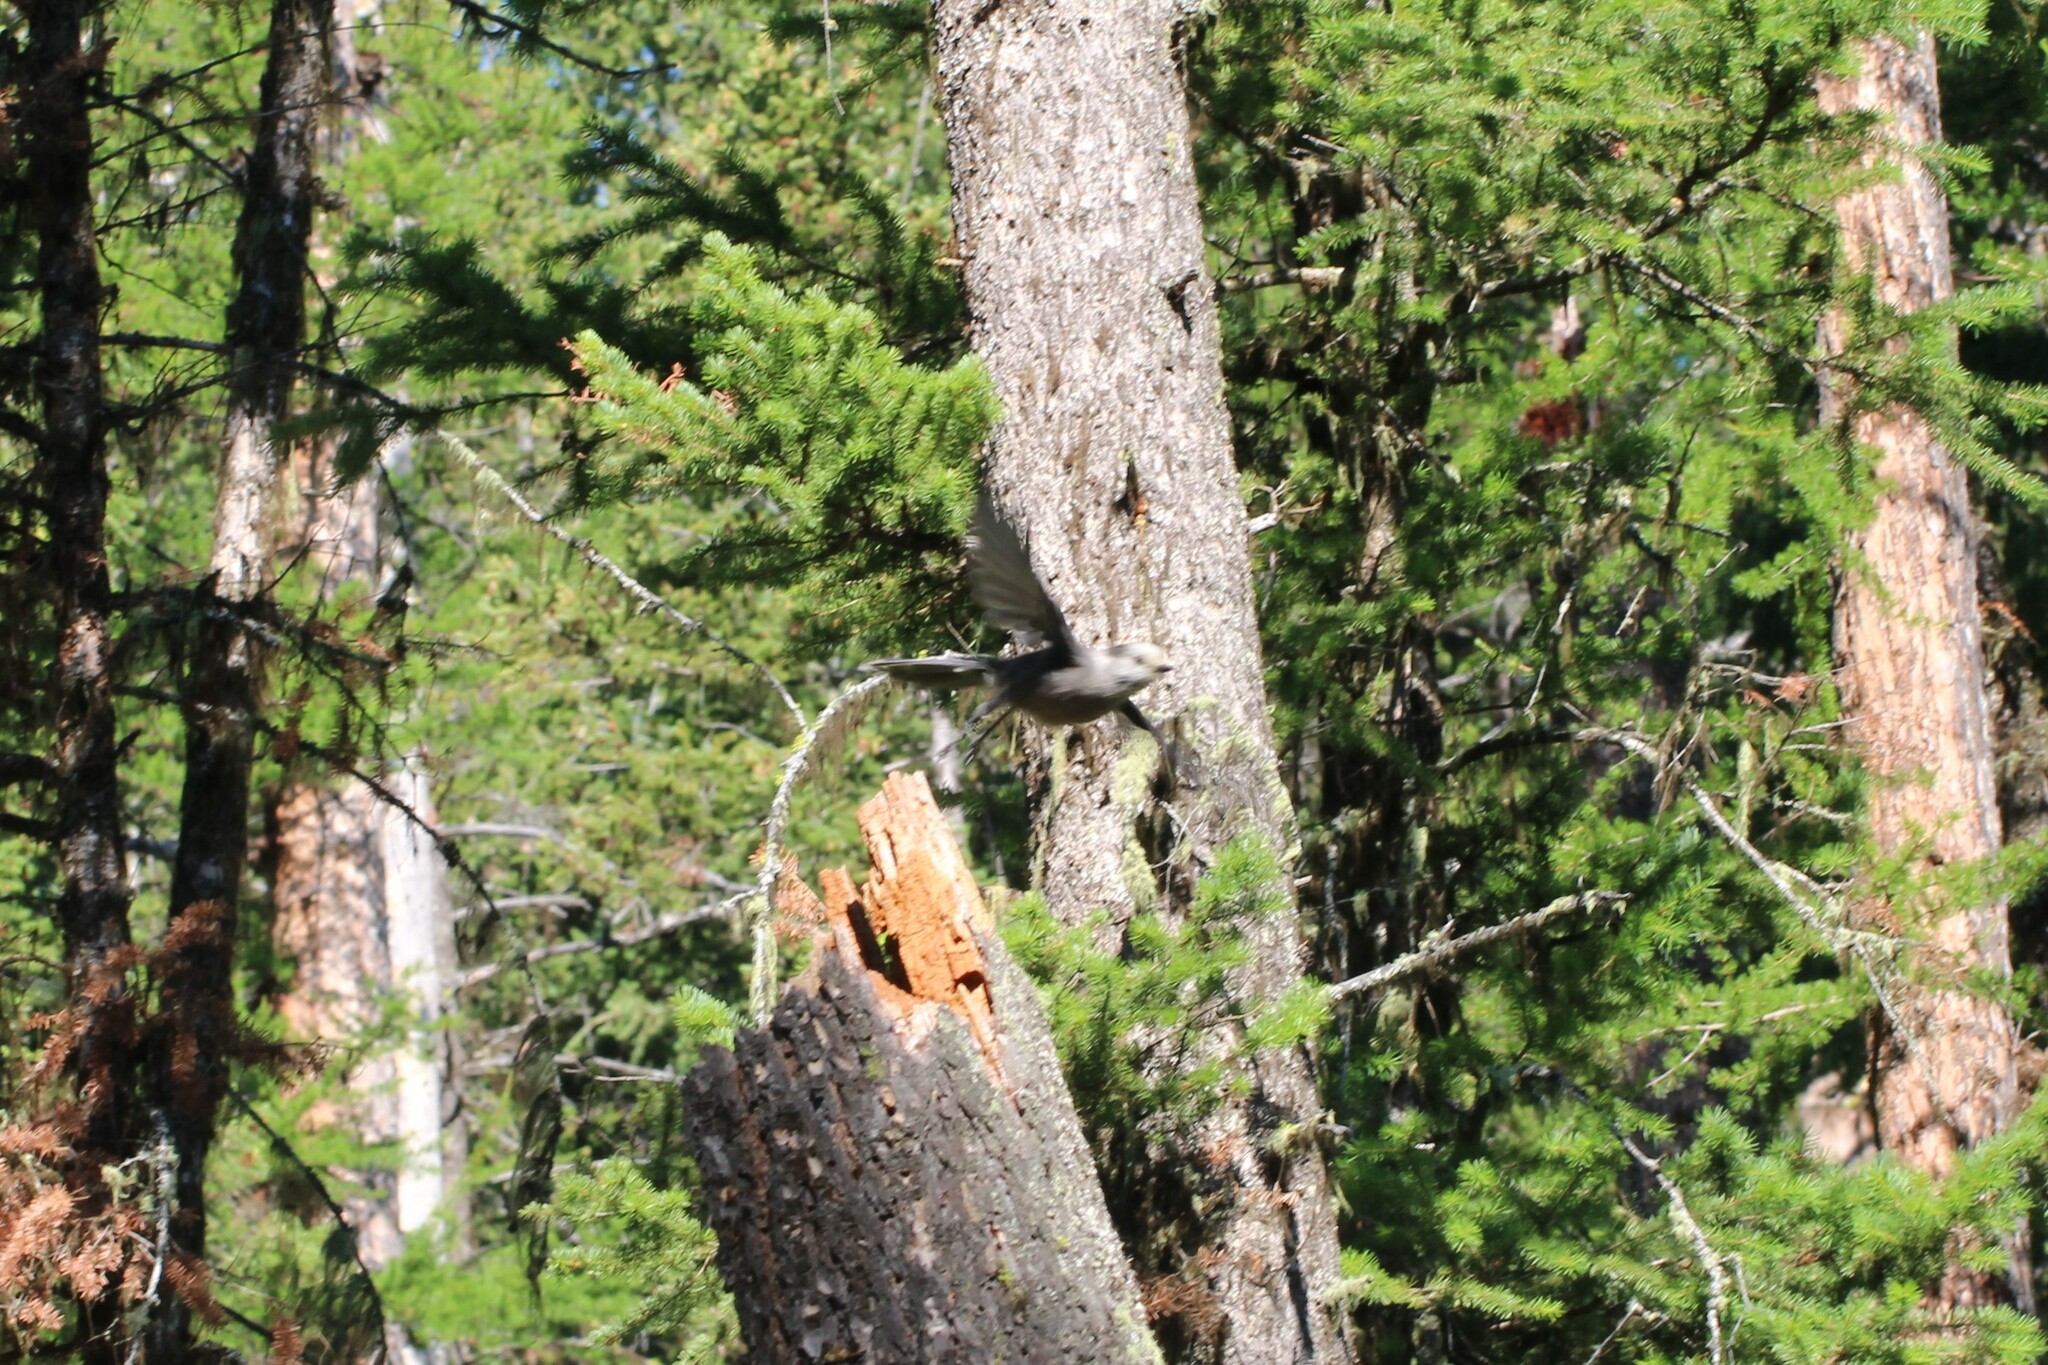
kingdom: Animalia
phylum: Chordata
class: Aves
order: Passeriformes
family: Corvidae
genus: Perisoreus
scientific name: Perisoreus canadensis
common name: Gray jay
